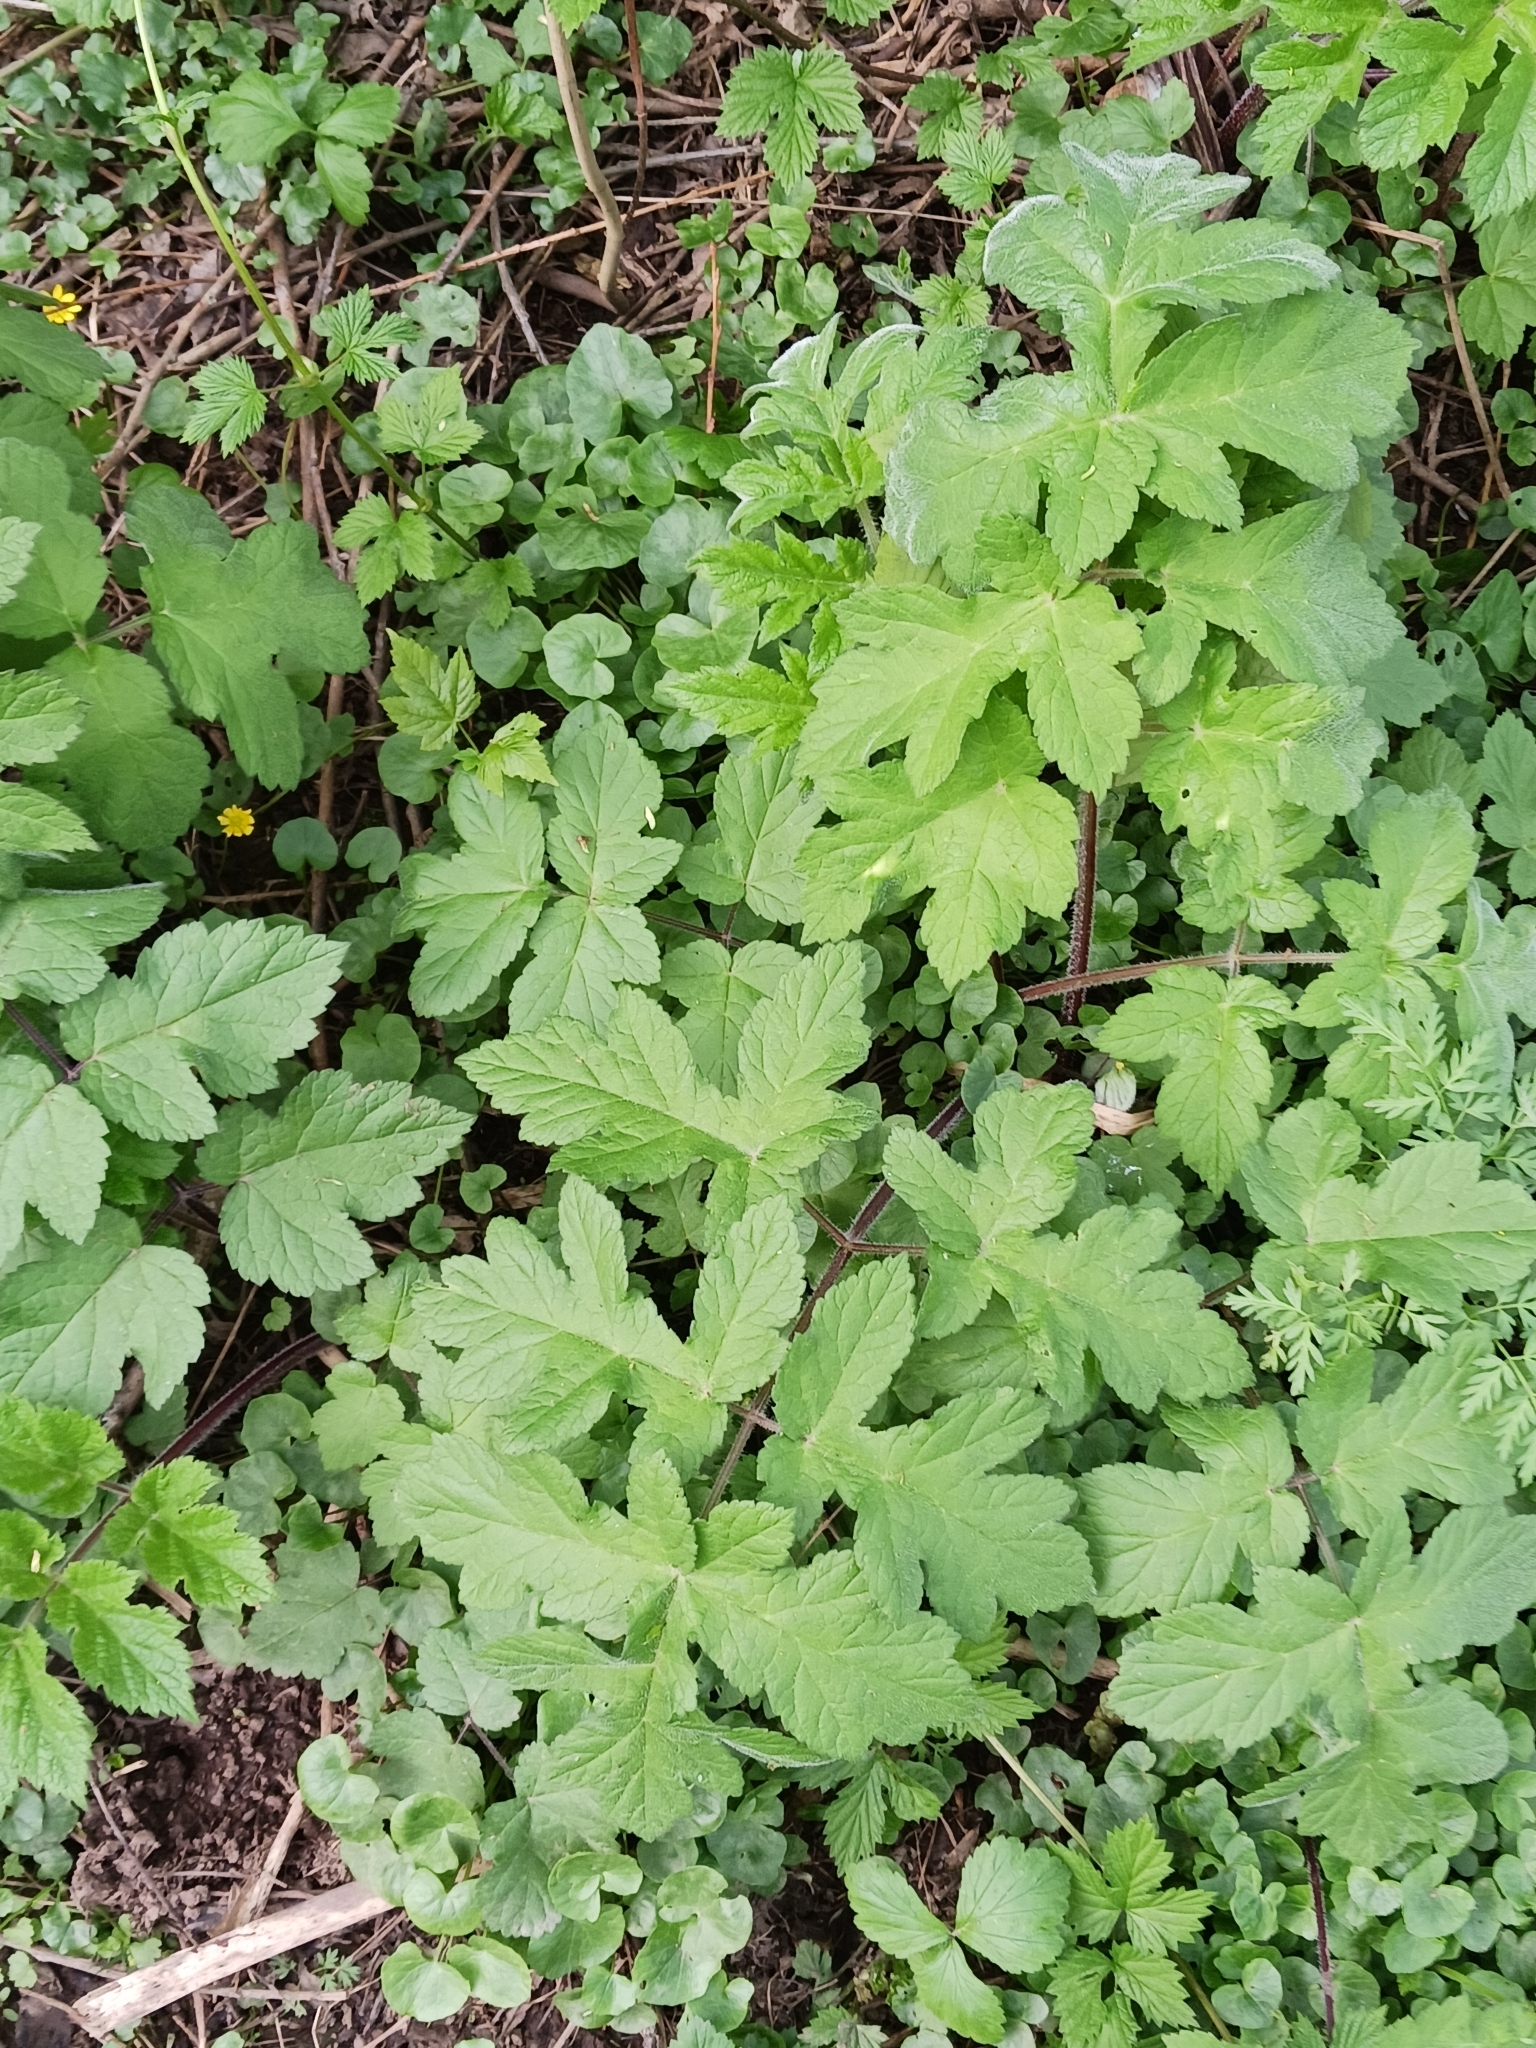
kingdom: Plantae
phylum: Tracheophyta
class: Magnoliopsida
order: Apiales
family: Apiaceae
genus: Heracleum
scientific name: Heracleum sphondylium
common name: Hogweed
